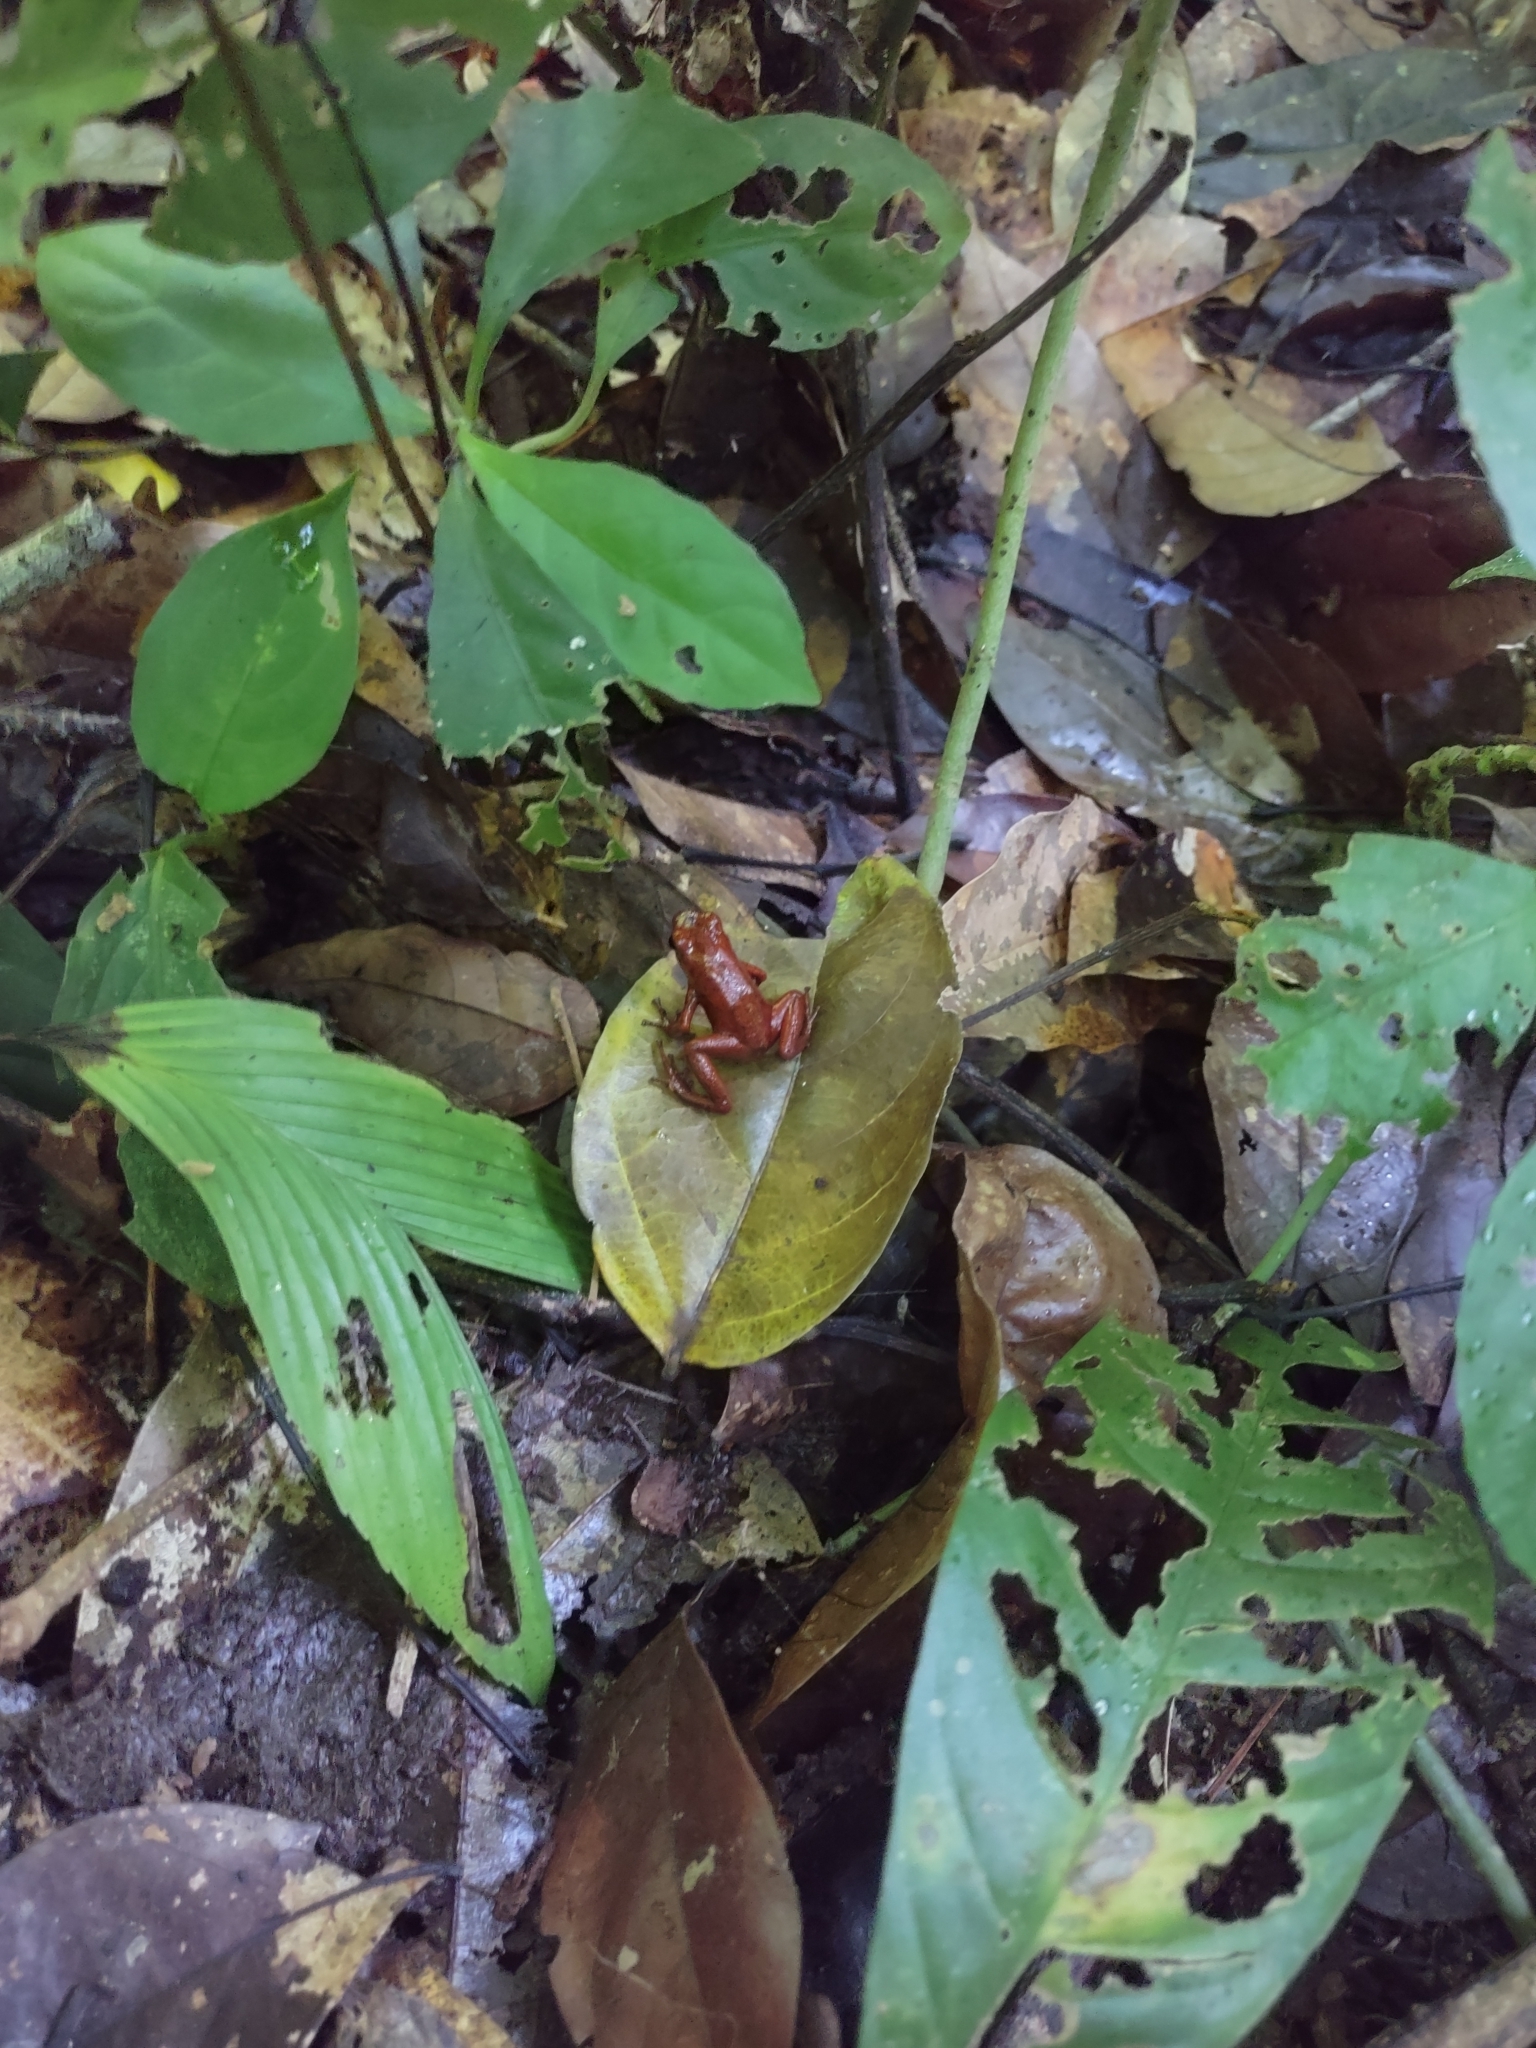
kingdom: Animalia
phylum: Chordata
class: Amphibia
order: Anura
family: Dendrobatidae
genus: Oophaga
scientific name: Oophaga pumilio
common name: Flaming poison frog
